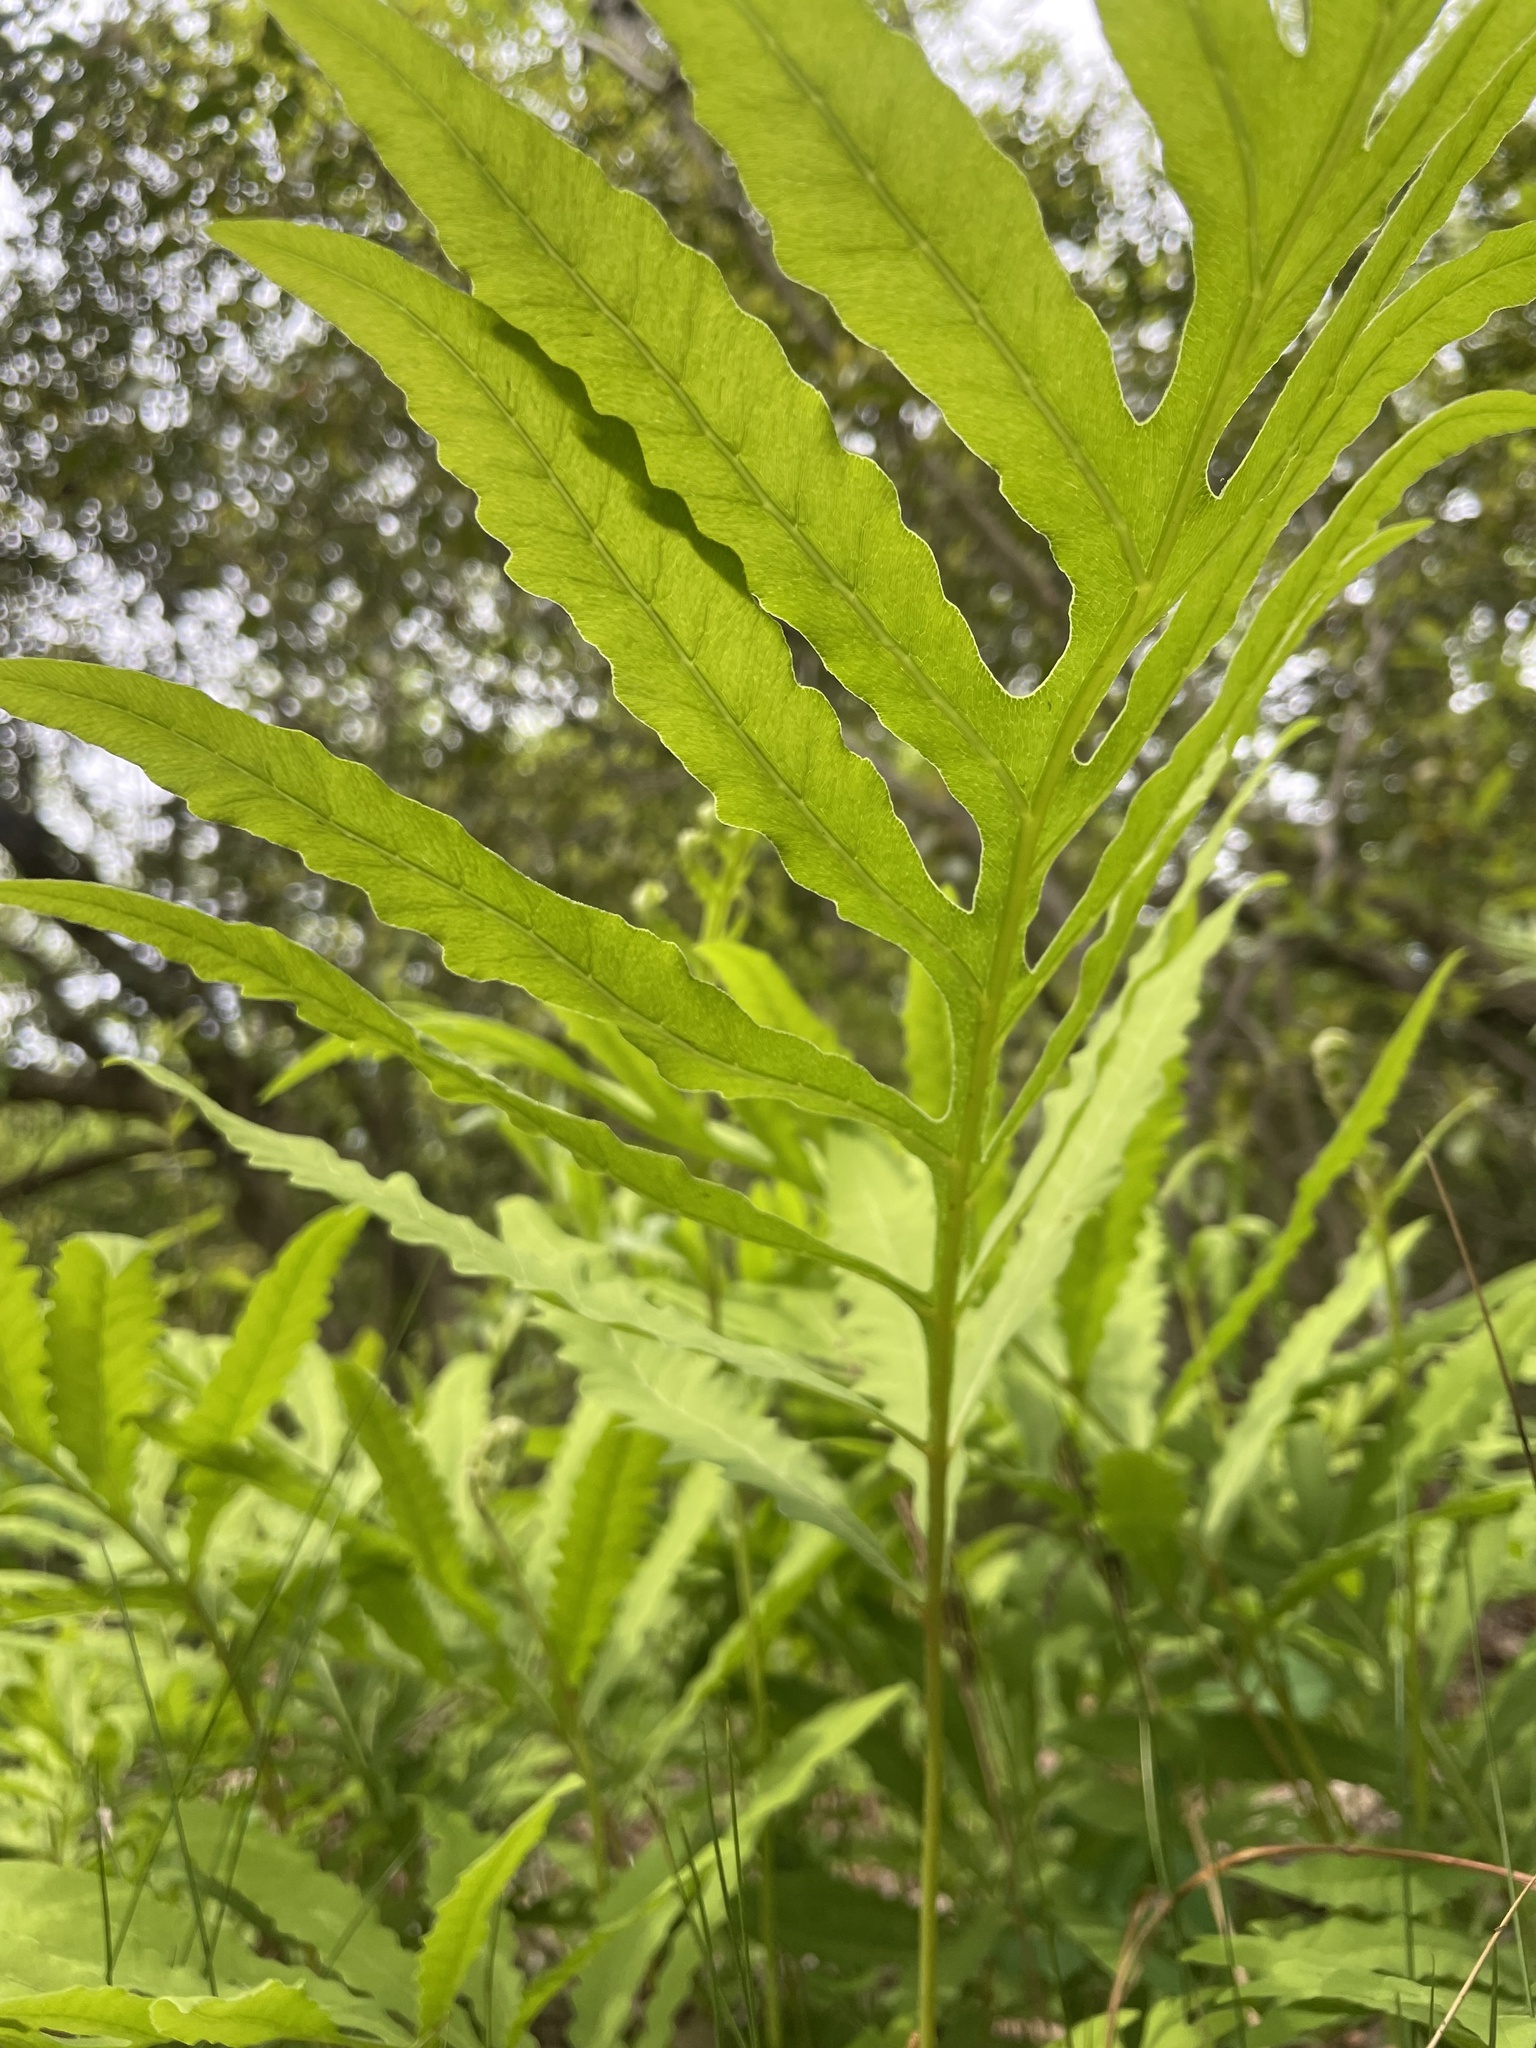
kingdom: Plantae
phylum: Tracheophyta
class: Polypodiopsida
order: Polypodiales
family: Onocleaceae
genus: Onoclea
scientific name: Onoclea sensibilis
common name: Sensitive fern
